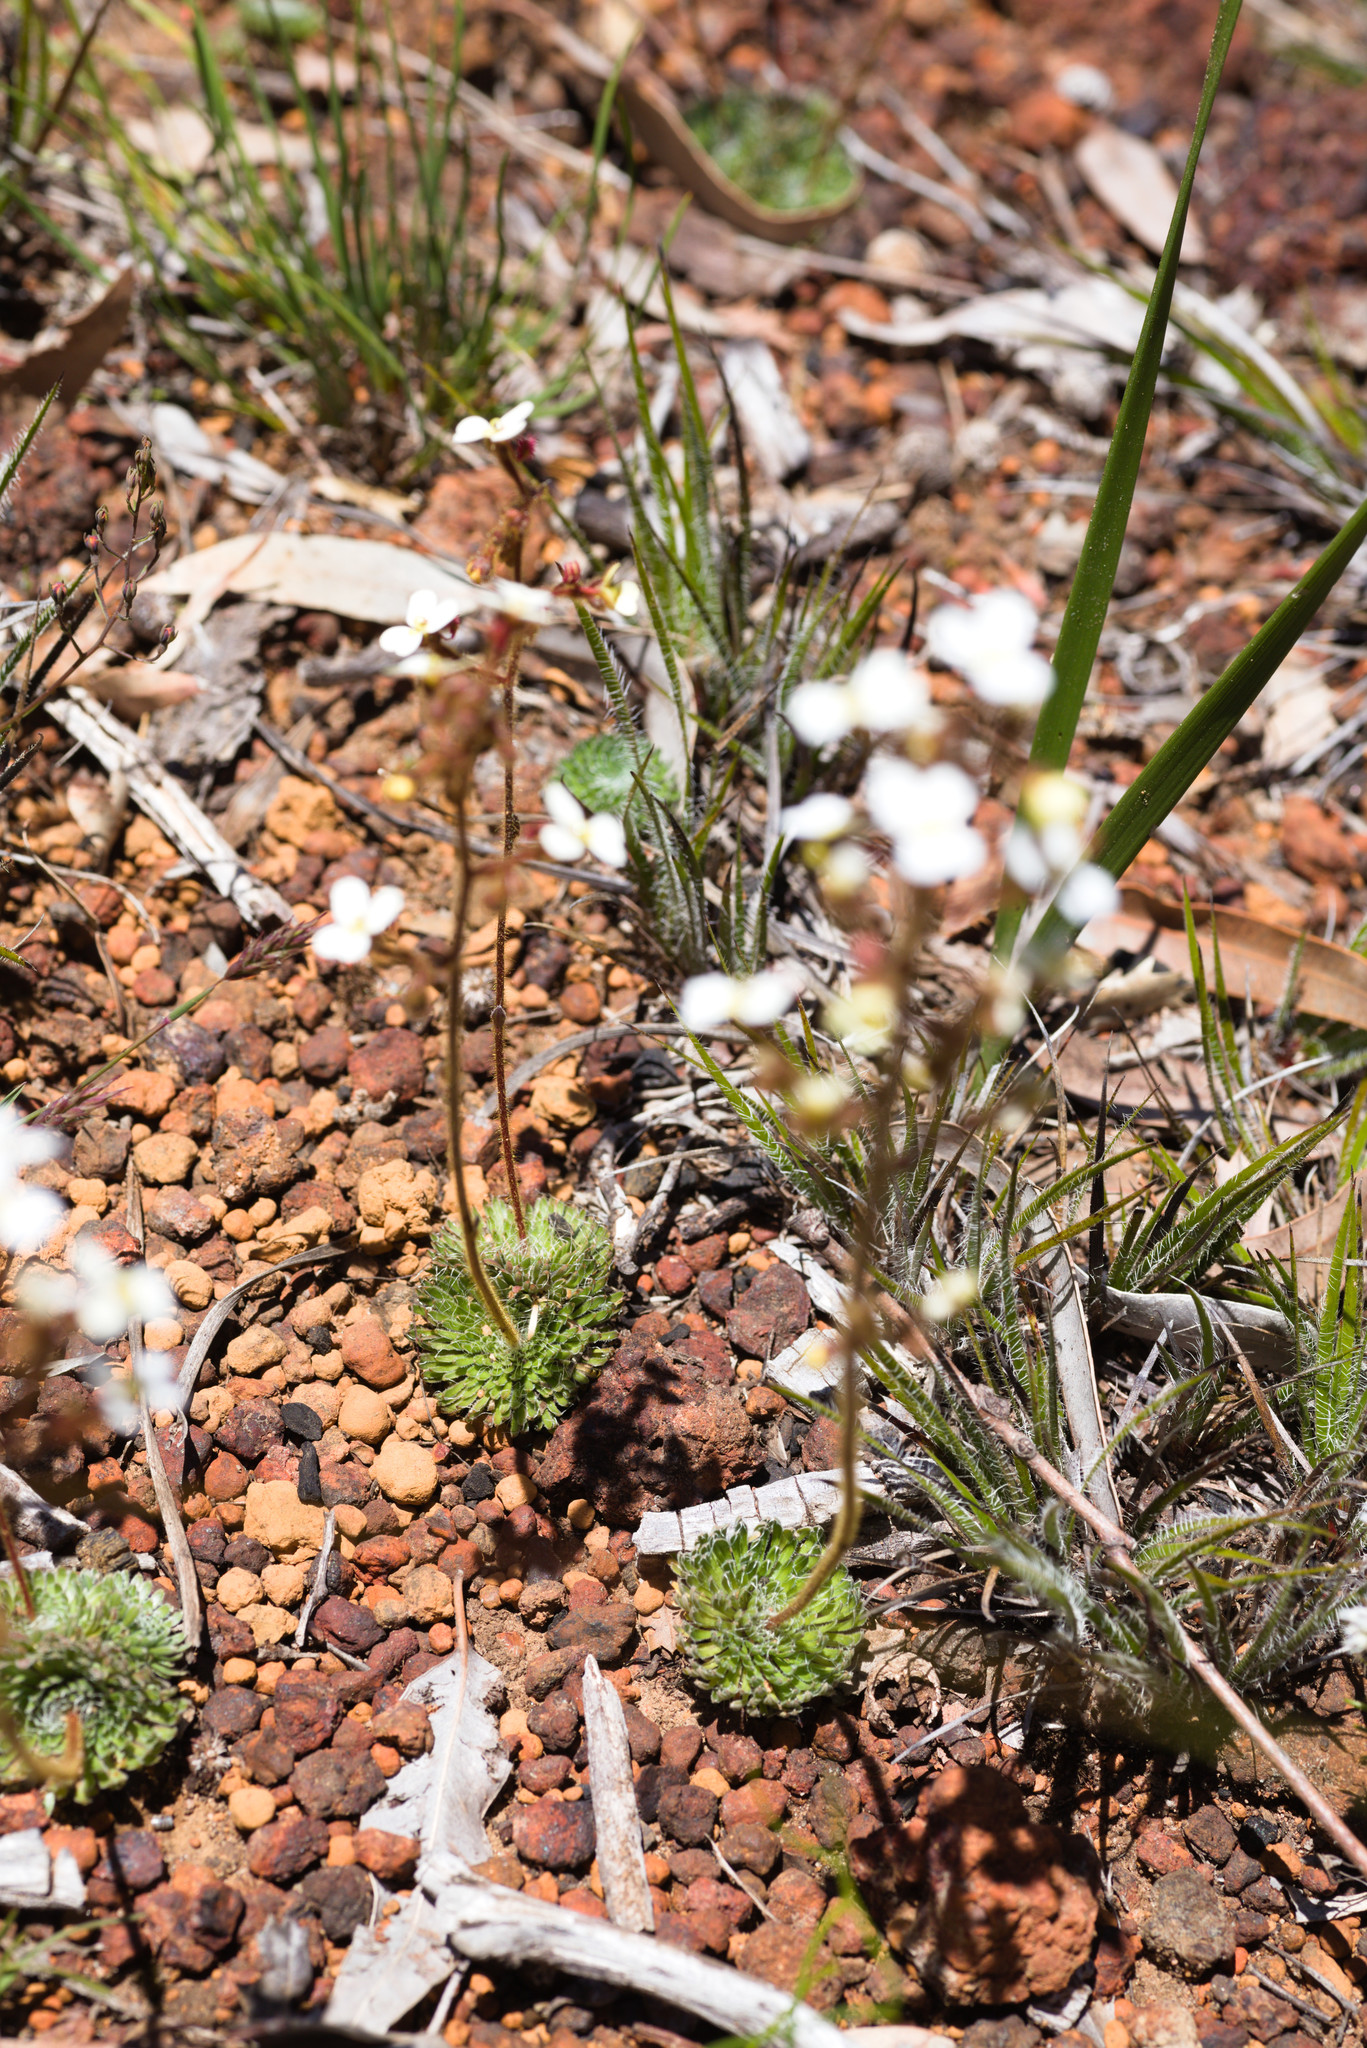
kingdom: Plantae
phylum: Tracheophyta
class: Magnoliopsida
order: Asterales
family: Stylidiaceae
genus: Stylidium
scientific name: Stylidium ciliatum
